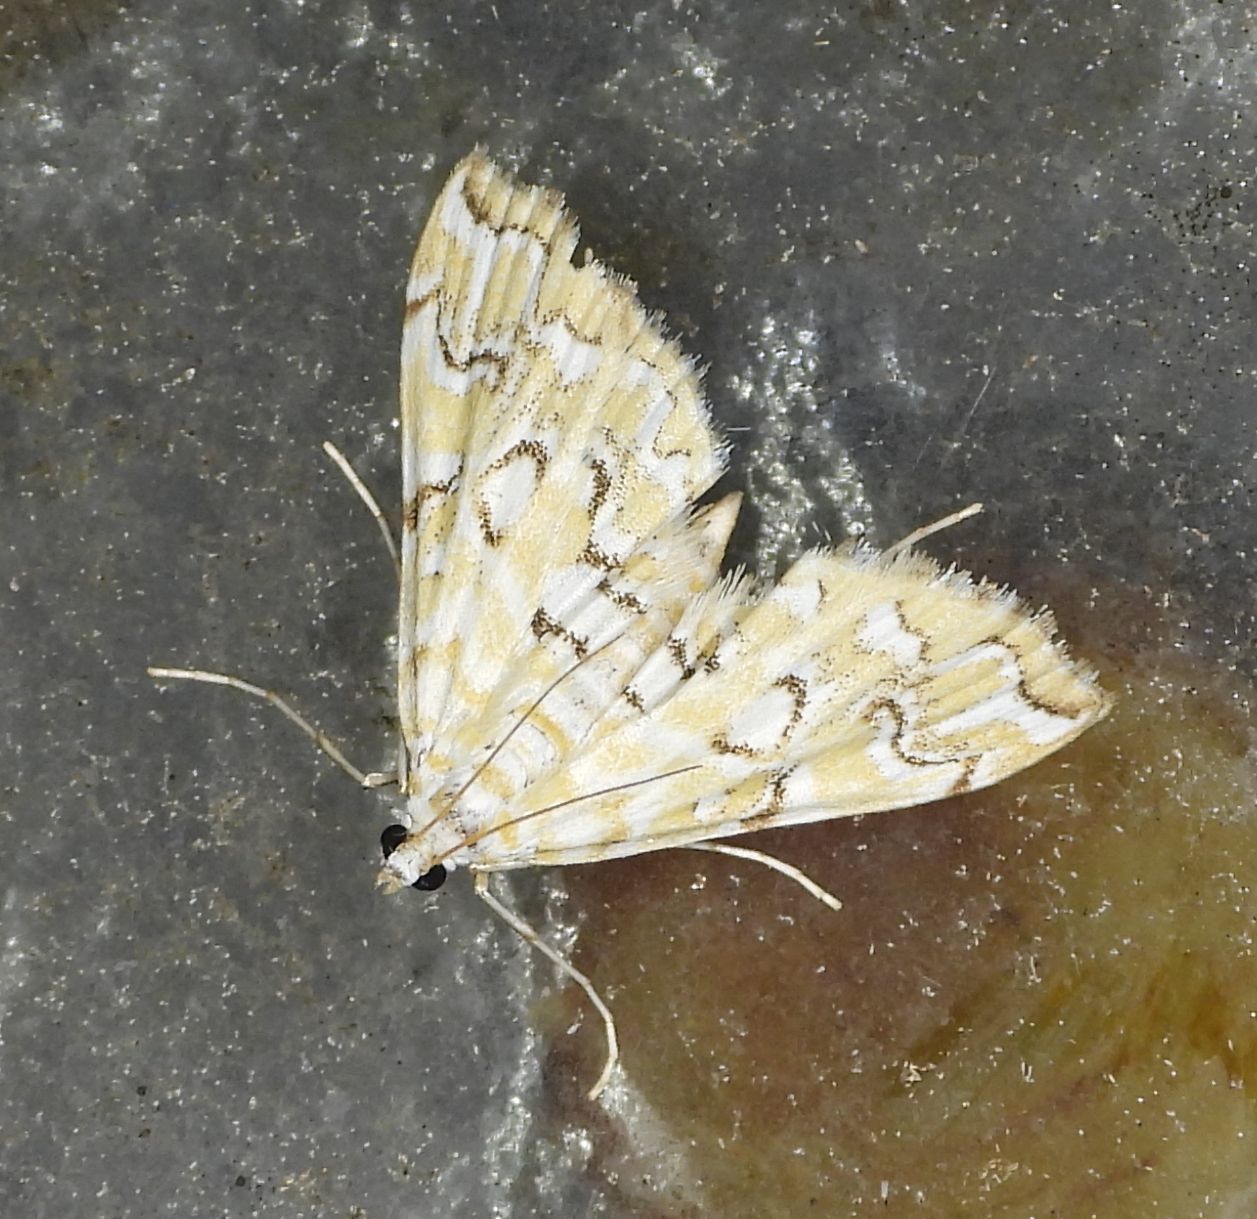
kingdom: Animalia
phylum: Arthropoda
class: Insecta
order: Lepidoptera
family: Crambidae
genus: Elophila
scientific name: Elophila icciusalis
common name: Pondside pyralid moth
